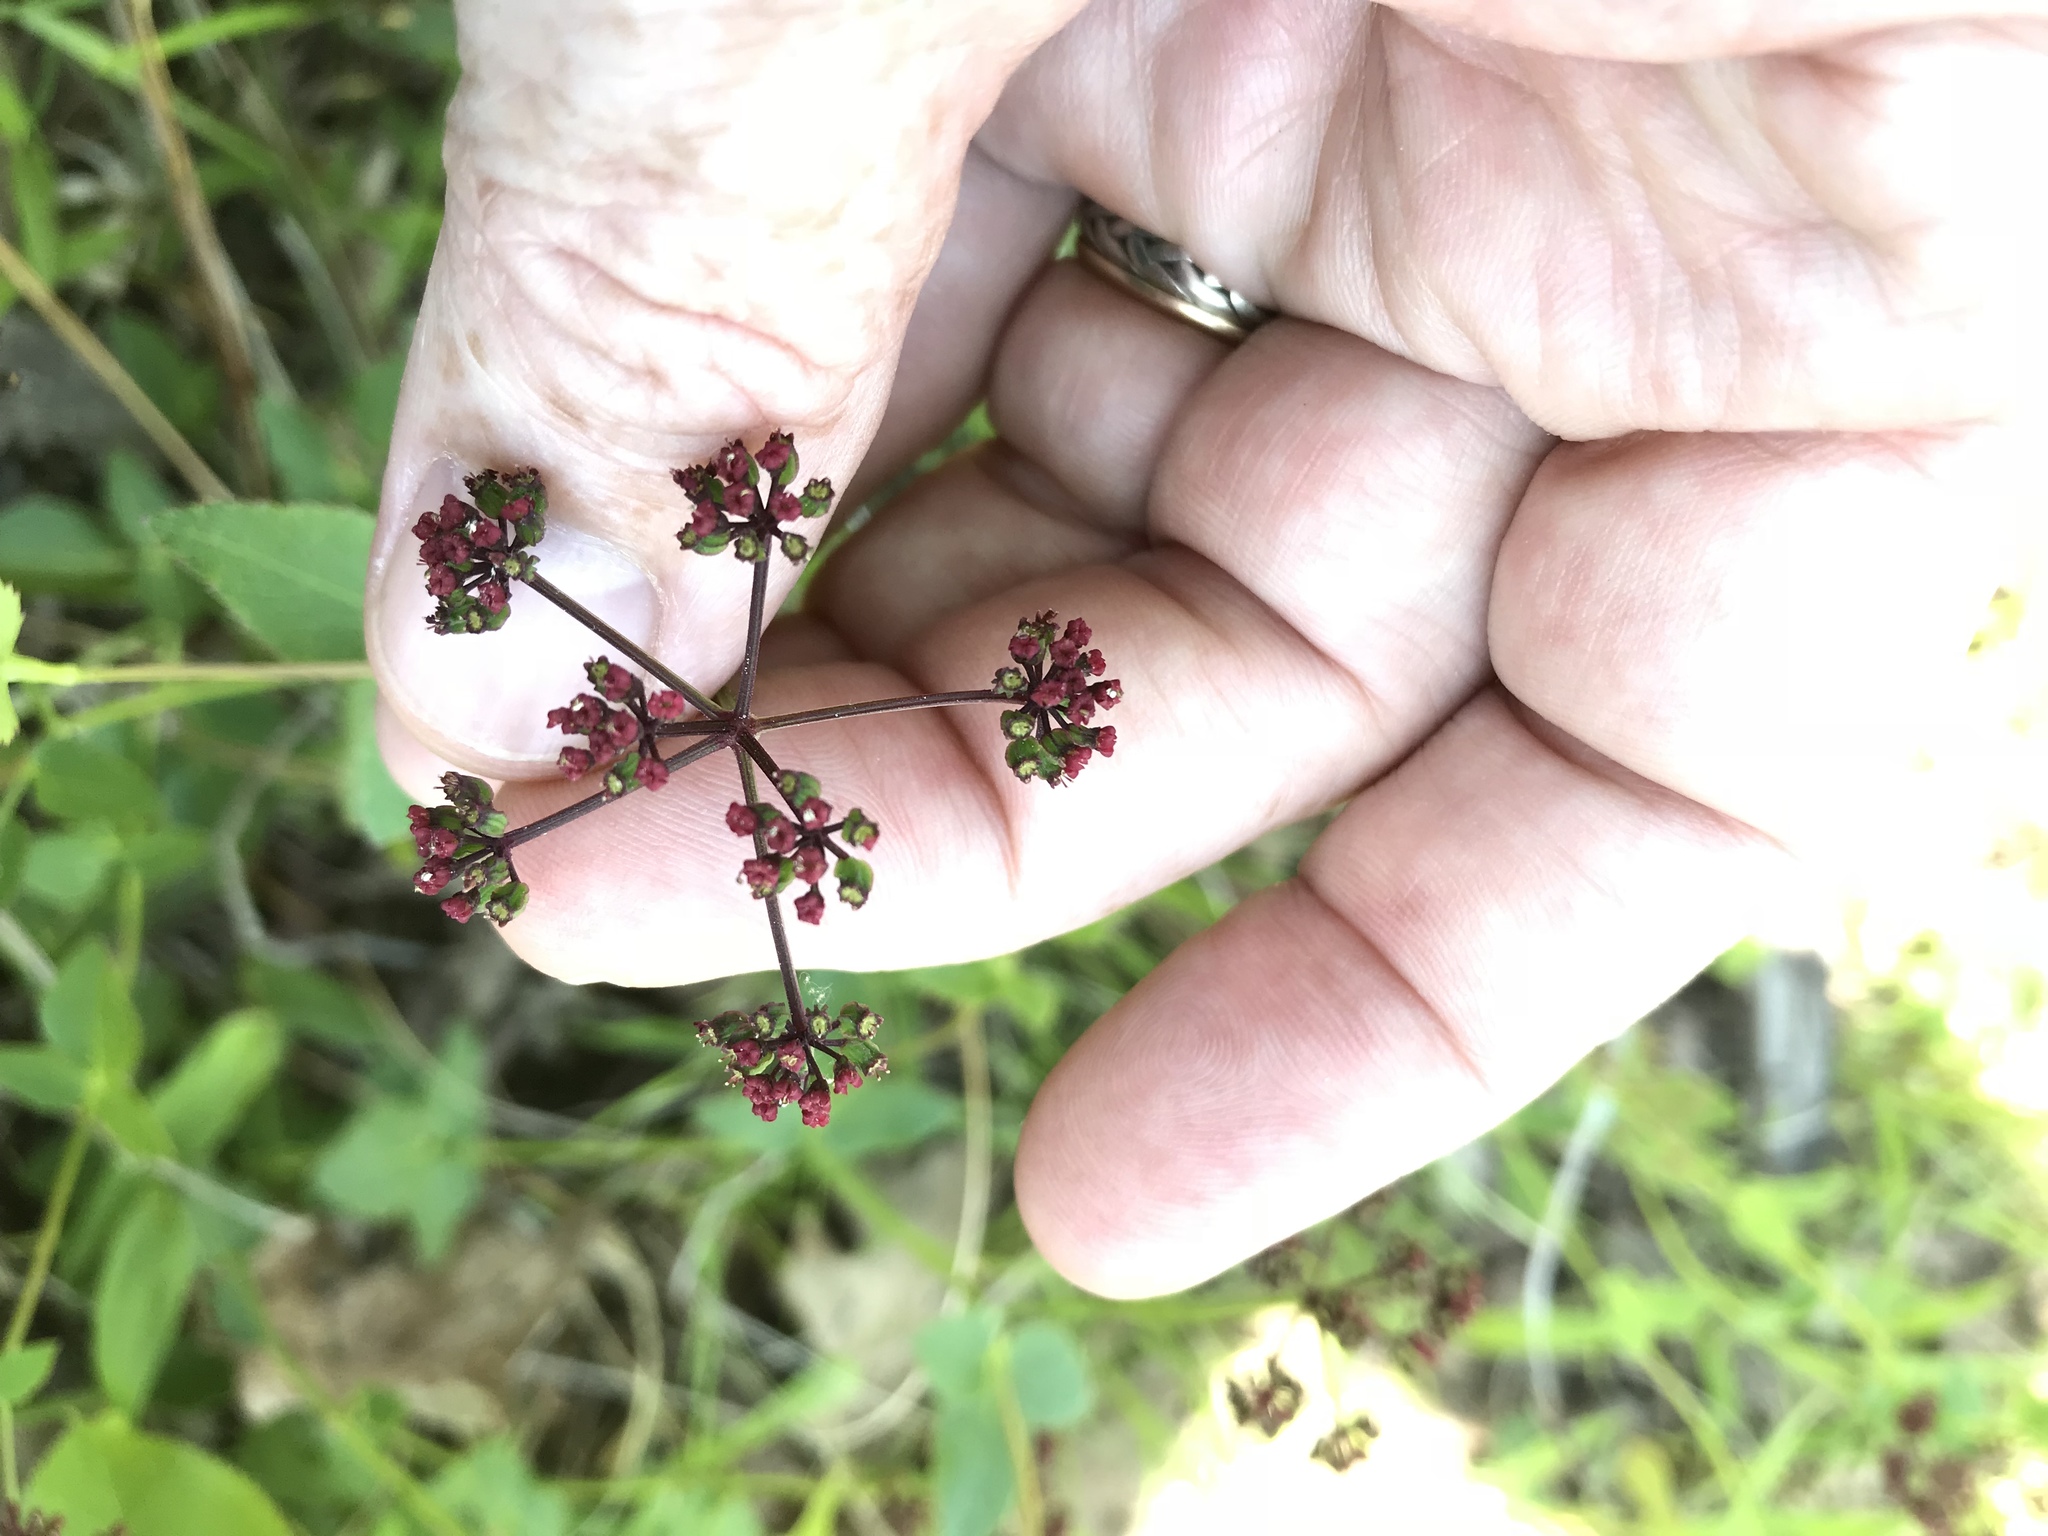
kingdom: Plantae
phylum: Tracheophyta
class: Magnoliopsida
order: Apiales
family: Apiaceae
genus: Thaspium
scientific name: Thaspium trifoliatum
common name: Purple meadow-parsnip
